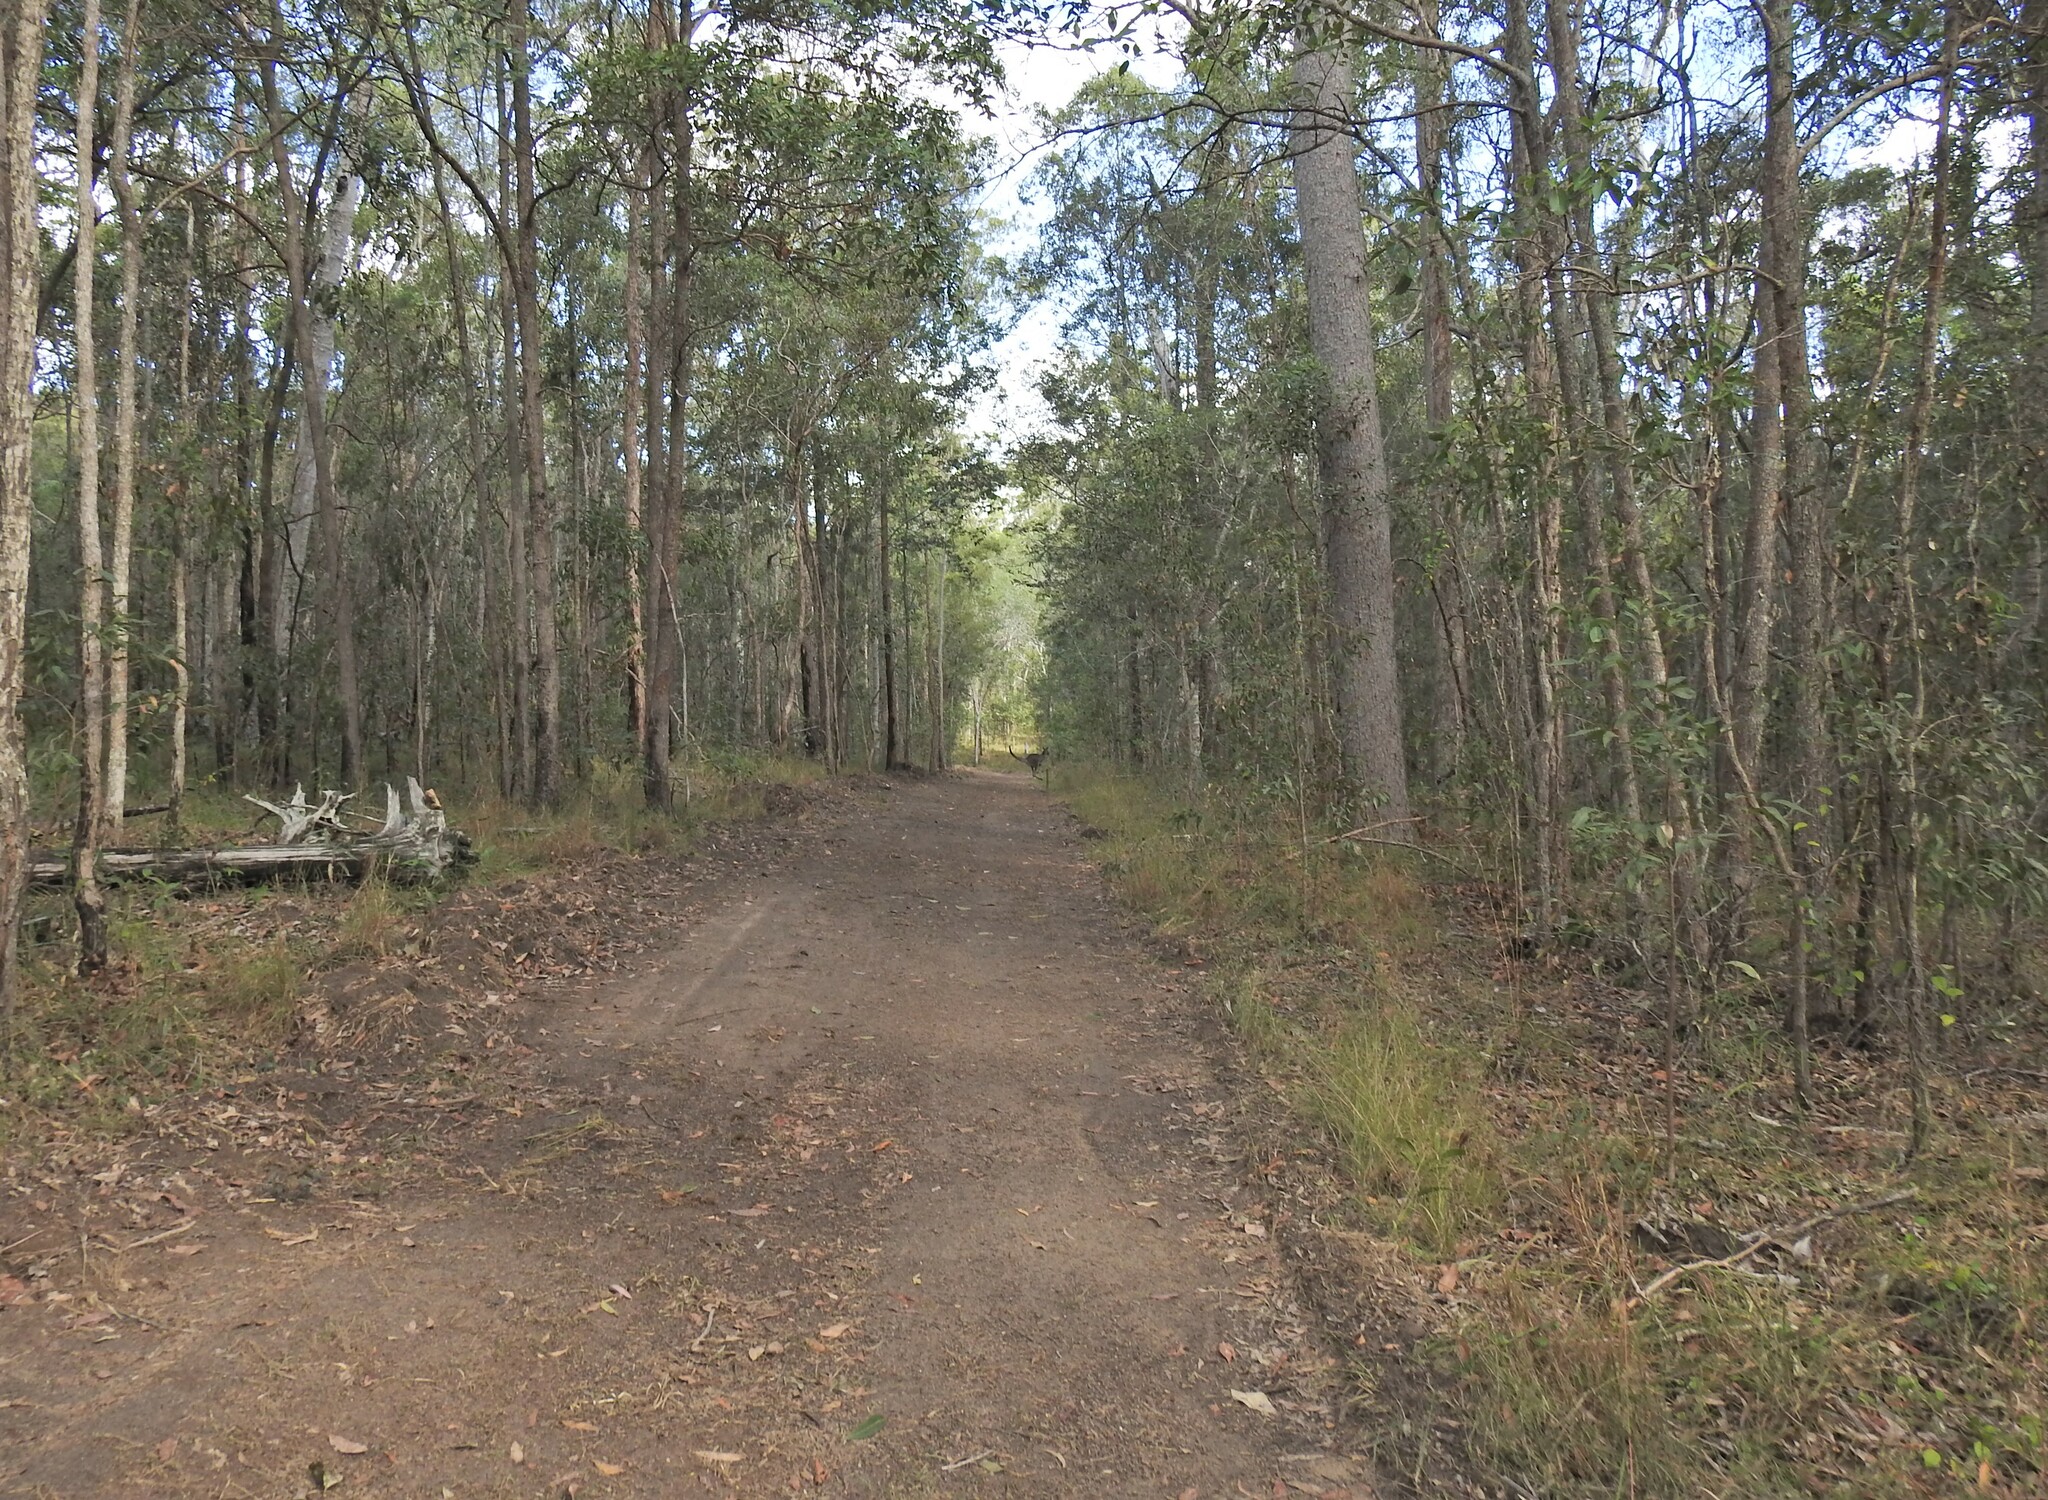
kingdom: Animalia
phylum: Chordata
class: Mammalia
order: Diprotodontia
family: Macropodidae
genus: Macropus
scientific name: Macropus giganteus
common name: Eastern grey kangaroo
